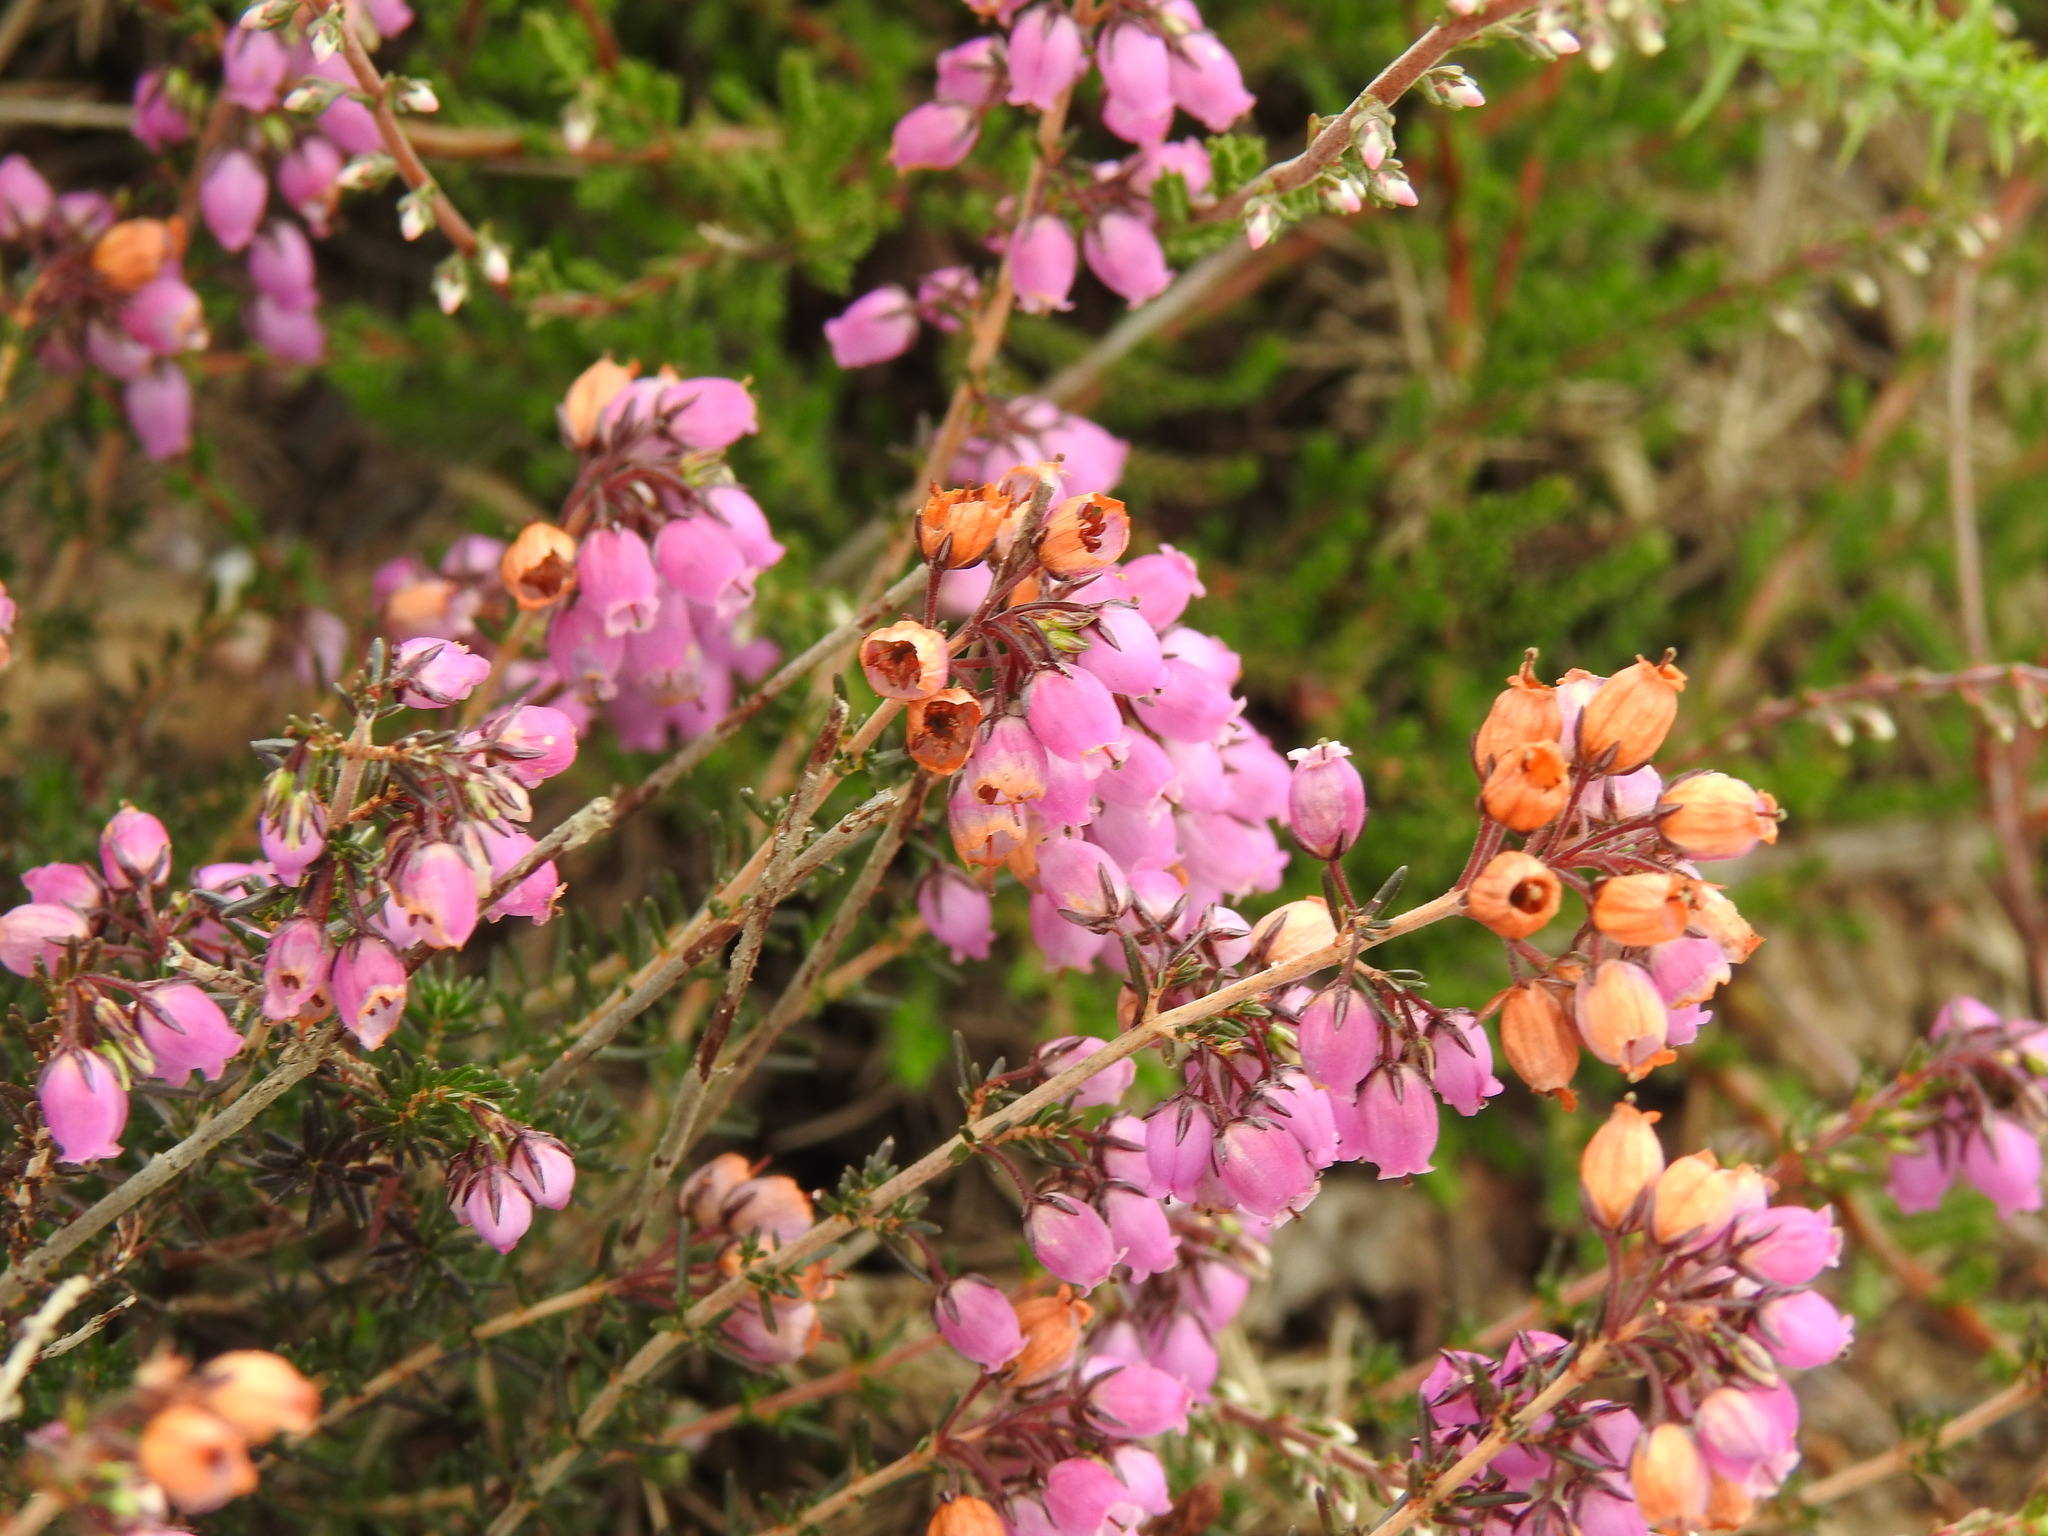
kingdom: Plantae
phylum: Tracheophyta
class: Magnoliopsida
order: Ericales
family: Ericaceae
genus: Erica
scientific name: Erica cinerea
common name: Bell heather
